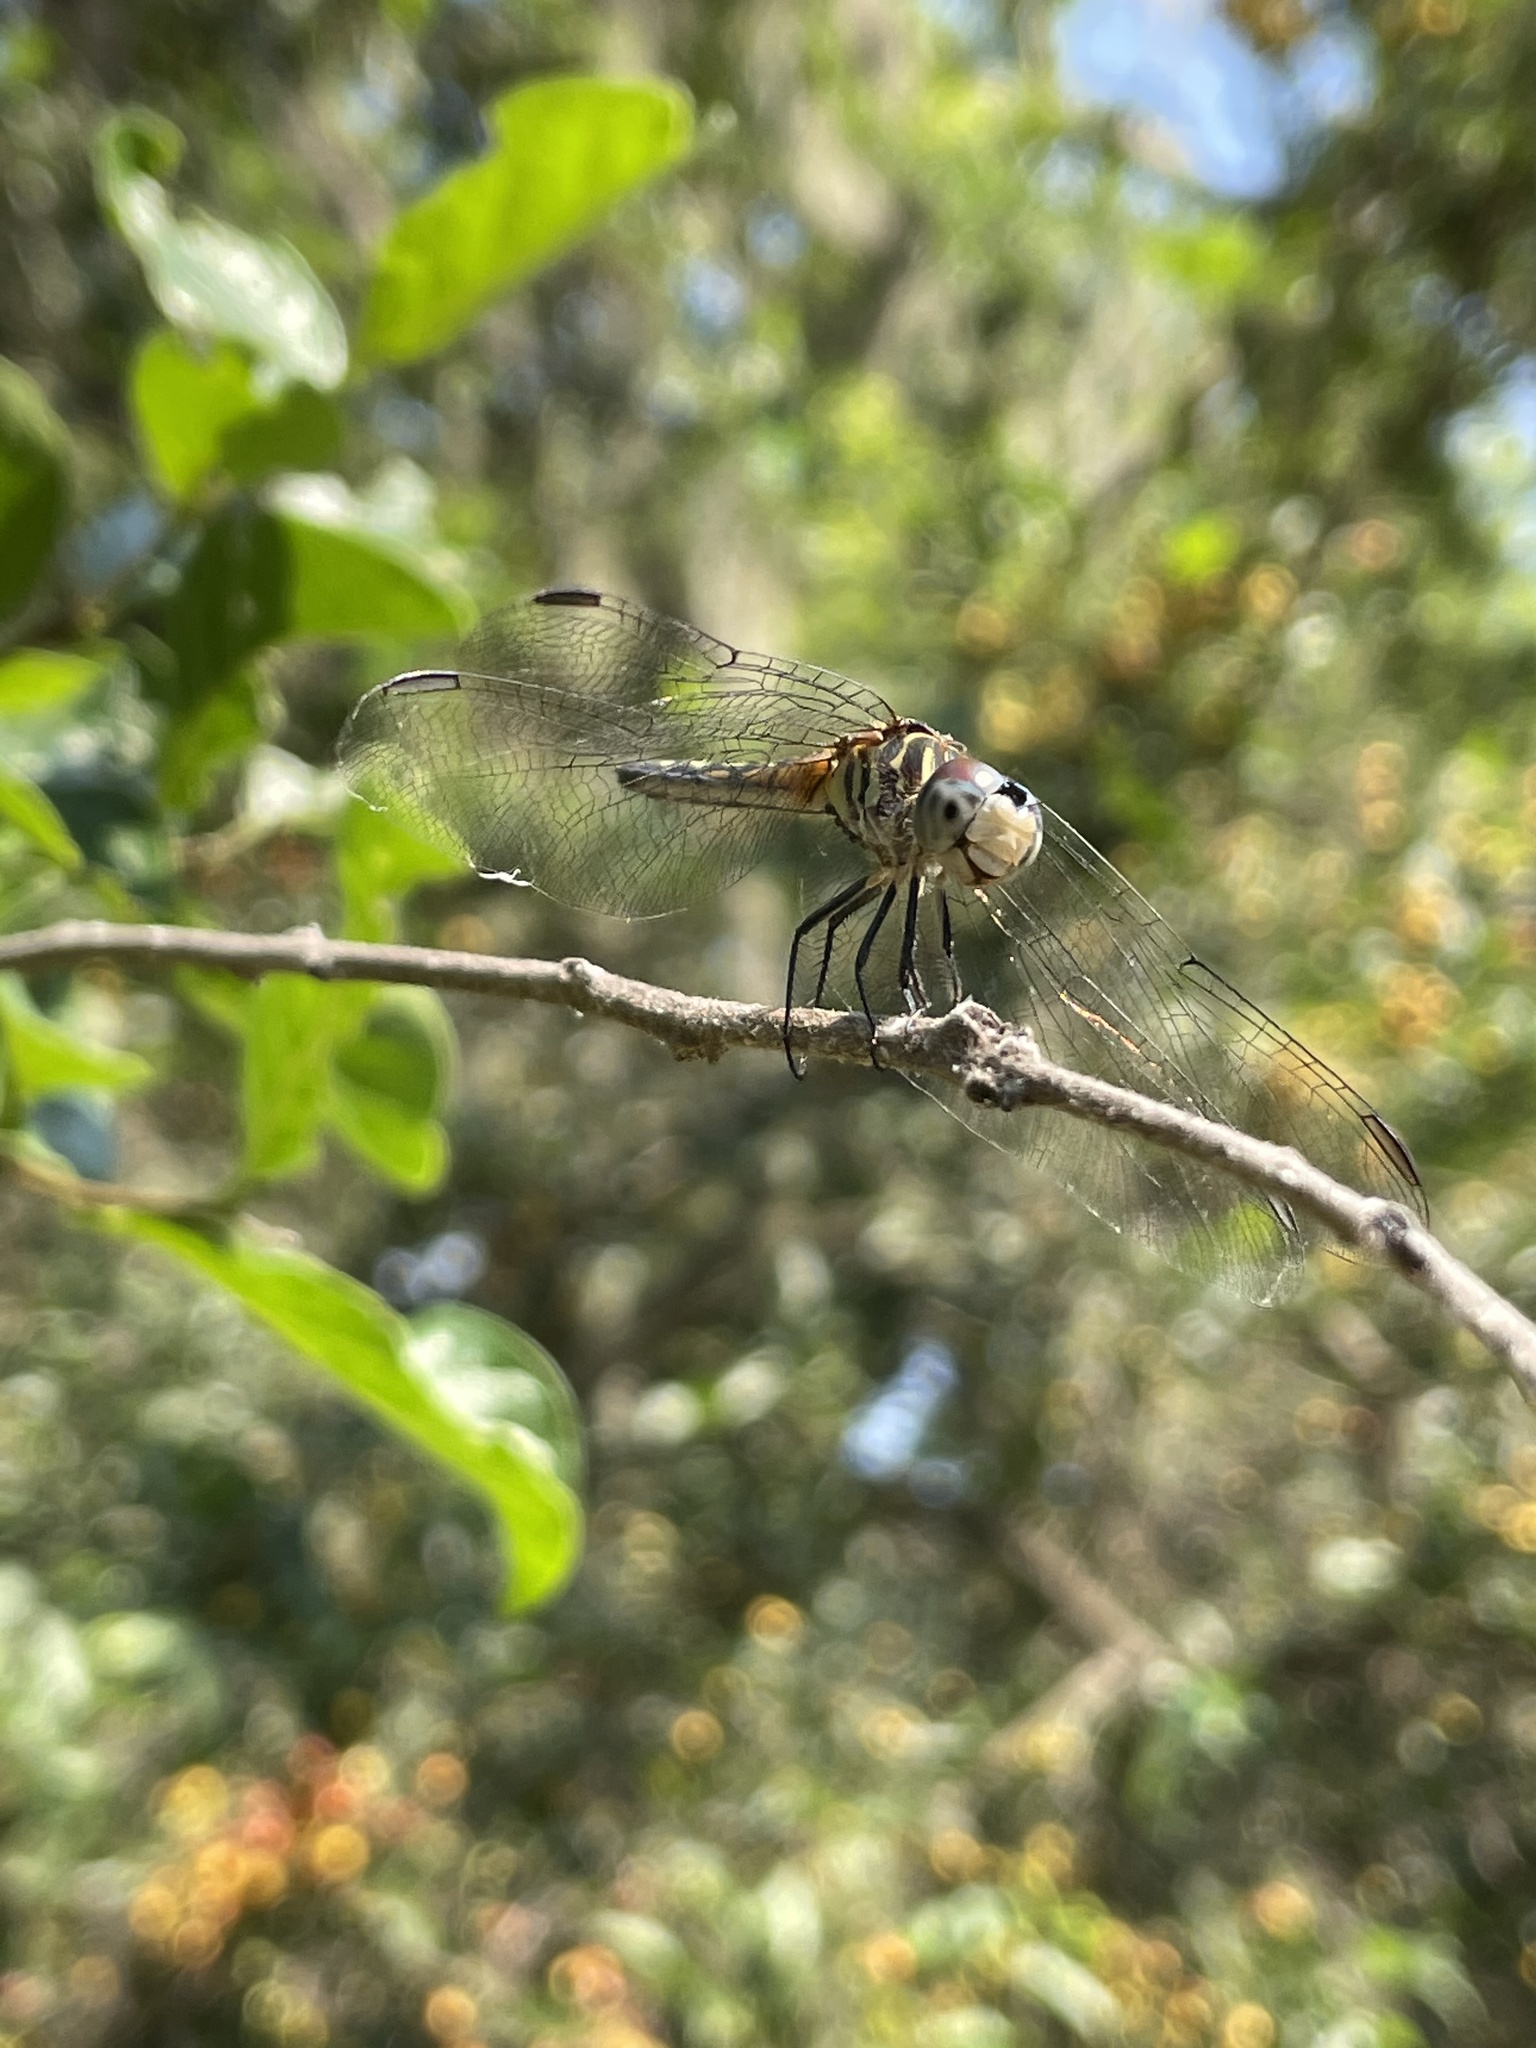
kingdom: Animalia
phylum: Arthropoda
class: Insecta
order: Odonata
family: Libellulidae
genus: Pachydiplax
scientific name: Pachydiplax longipennis
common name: Blue dasher
